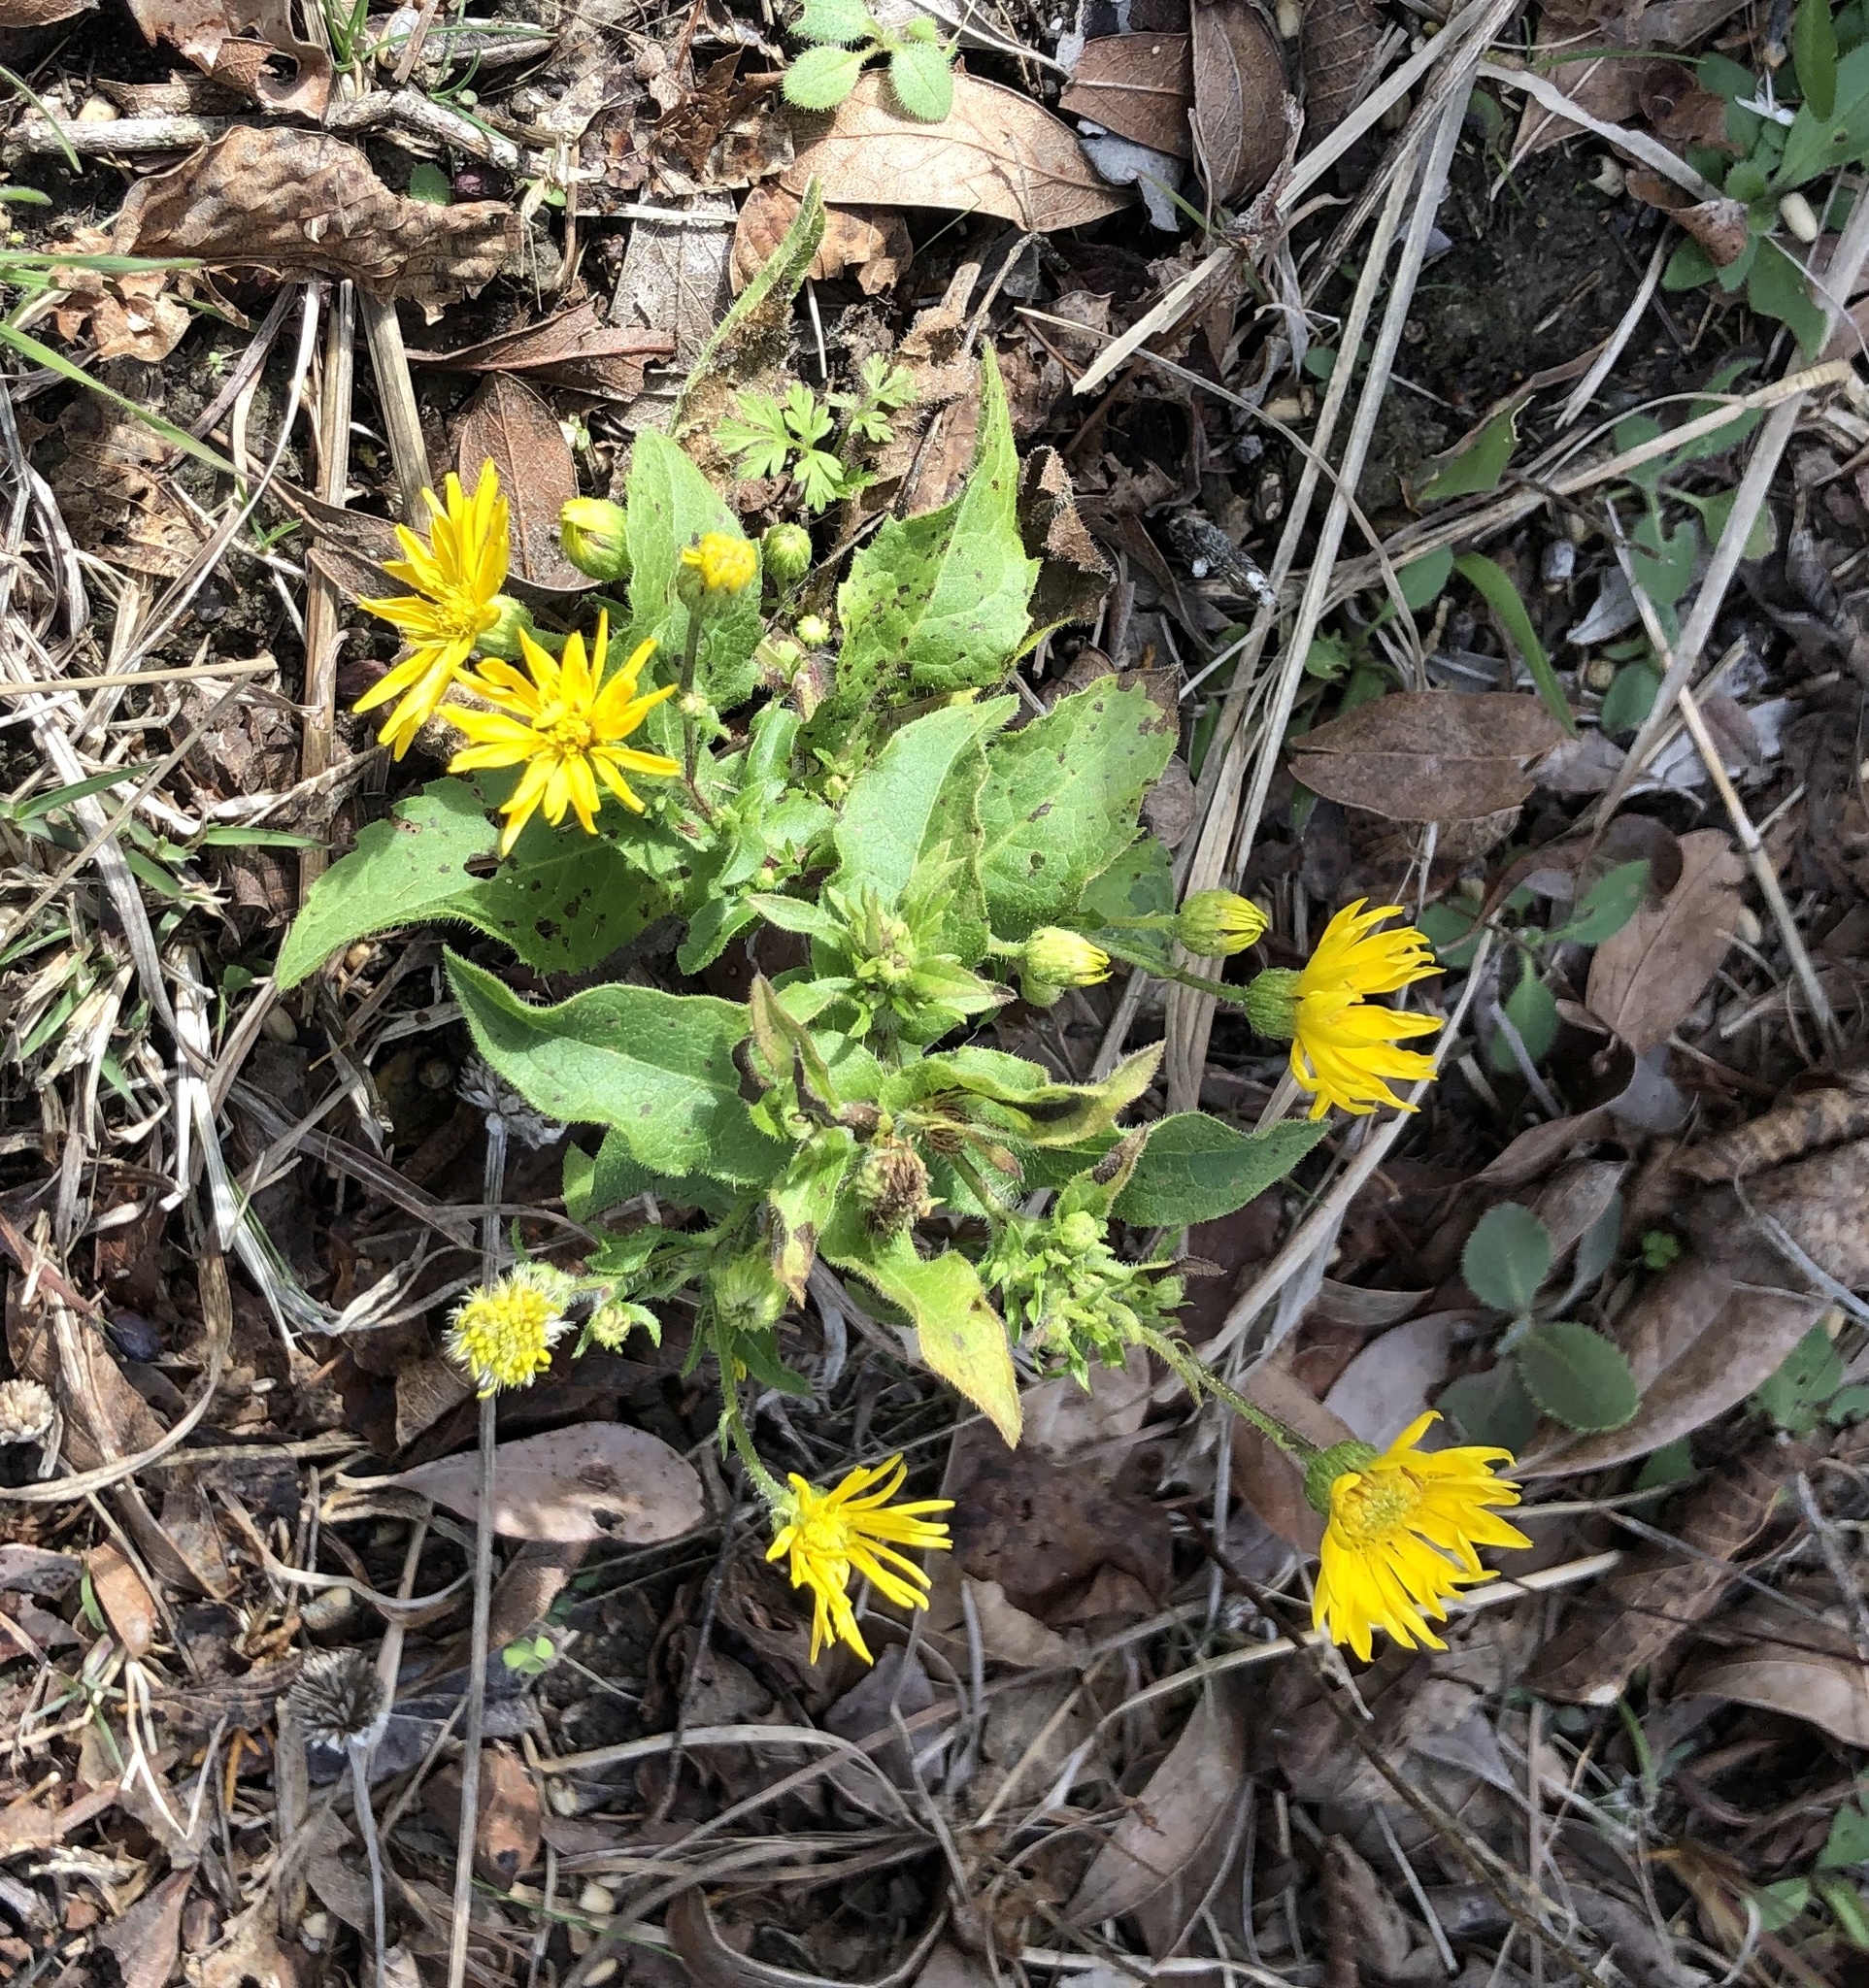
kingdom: Plantae
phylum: Tracheophyta
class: Magnoliopsida
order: Asterales
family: Asteraceae
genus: Heterotheca
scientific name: Heterotheca subaxillaris
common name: Camphorweed
